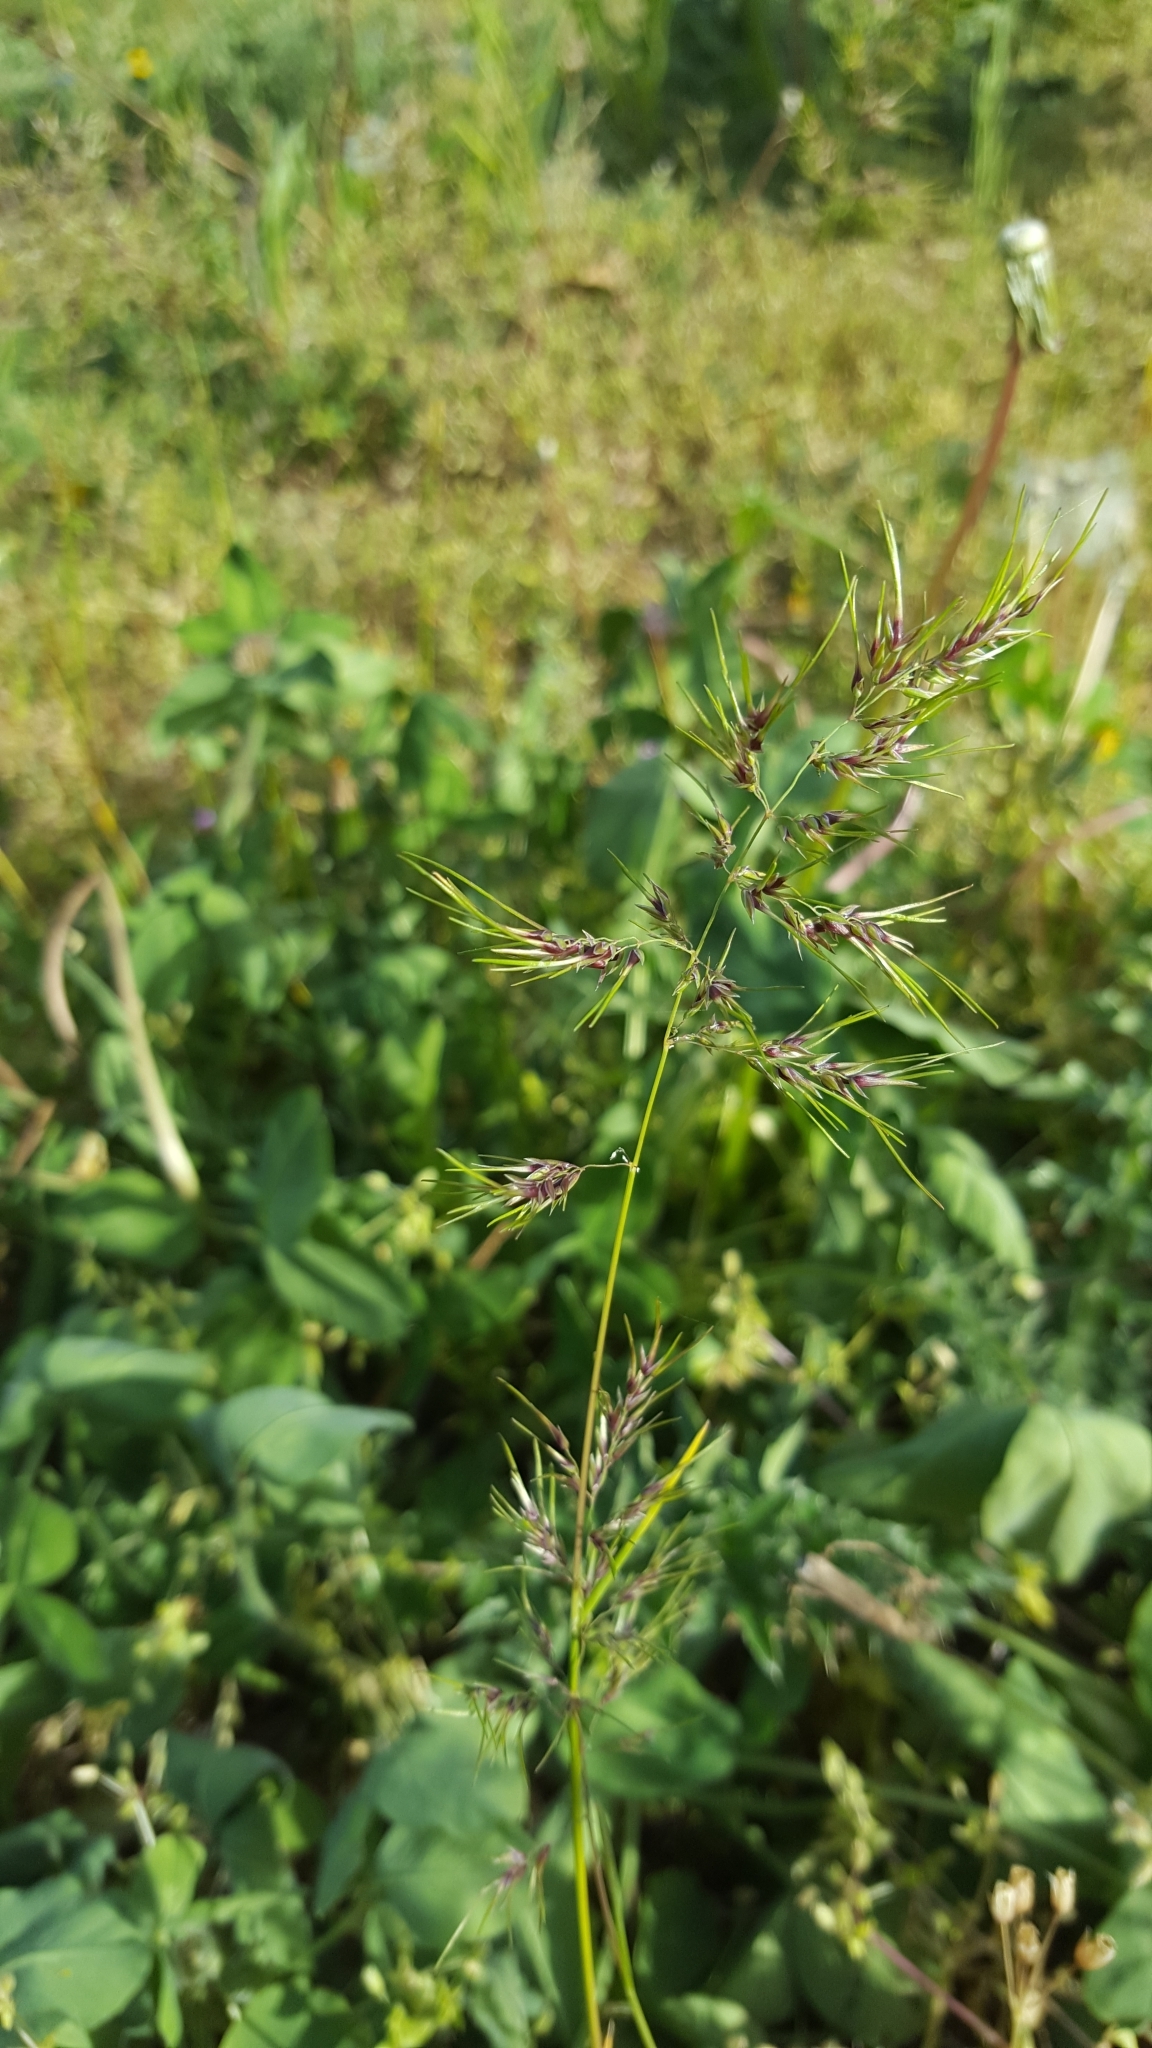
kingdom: Plantae
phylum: Tracheophyta
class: Liliopsida
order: Poales
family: Poaceae
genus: Poa
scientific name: Poa bulbosa
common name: Bulbous bluegrass
